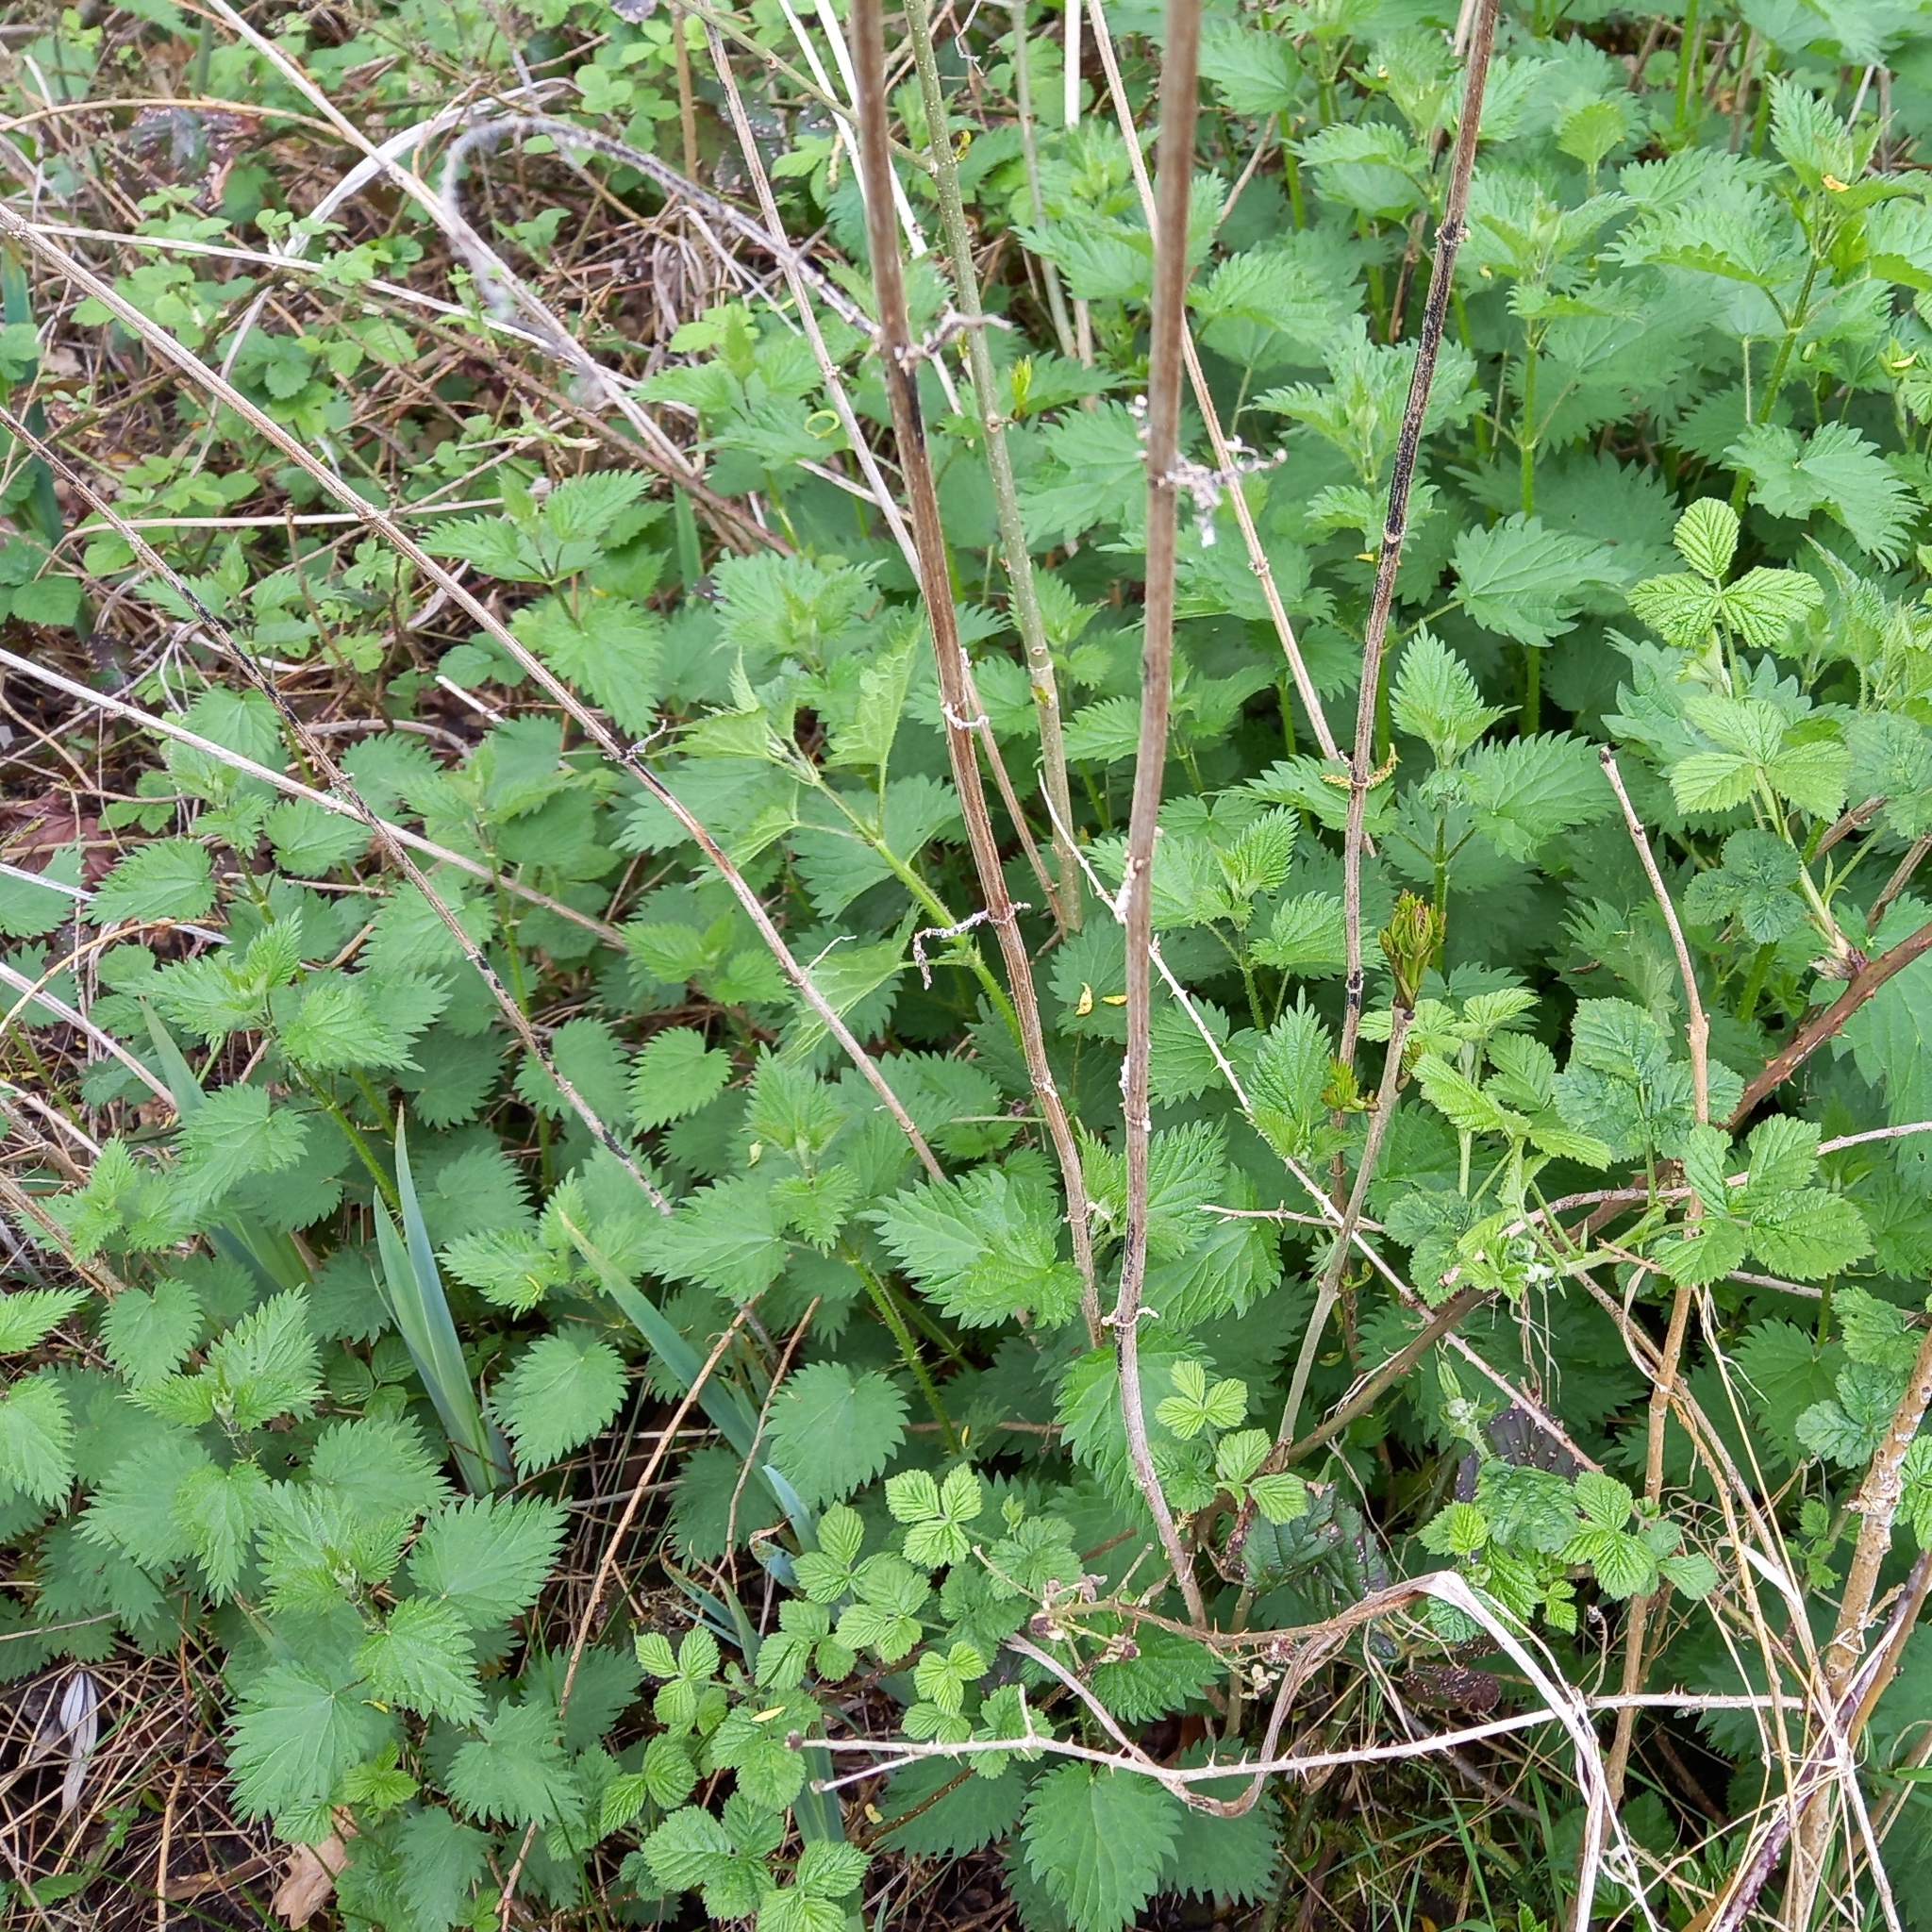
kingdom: Plantae
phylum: Tracheophyta
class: Magnoliopsida
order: Rosales
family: Urticaceae
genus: Urtica
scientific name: Urtica dioica
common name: Common nettle
